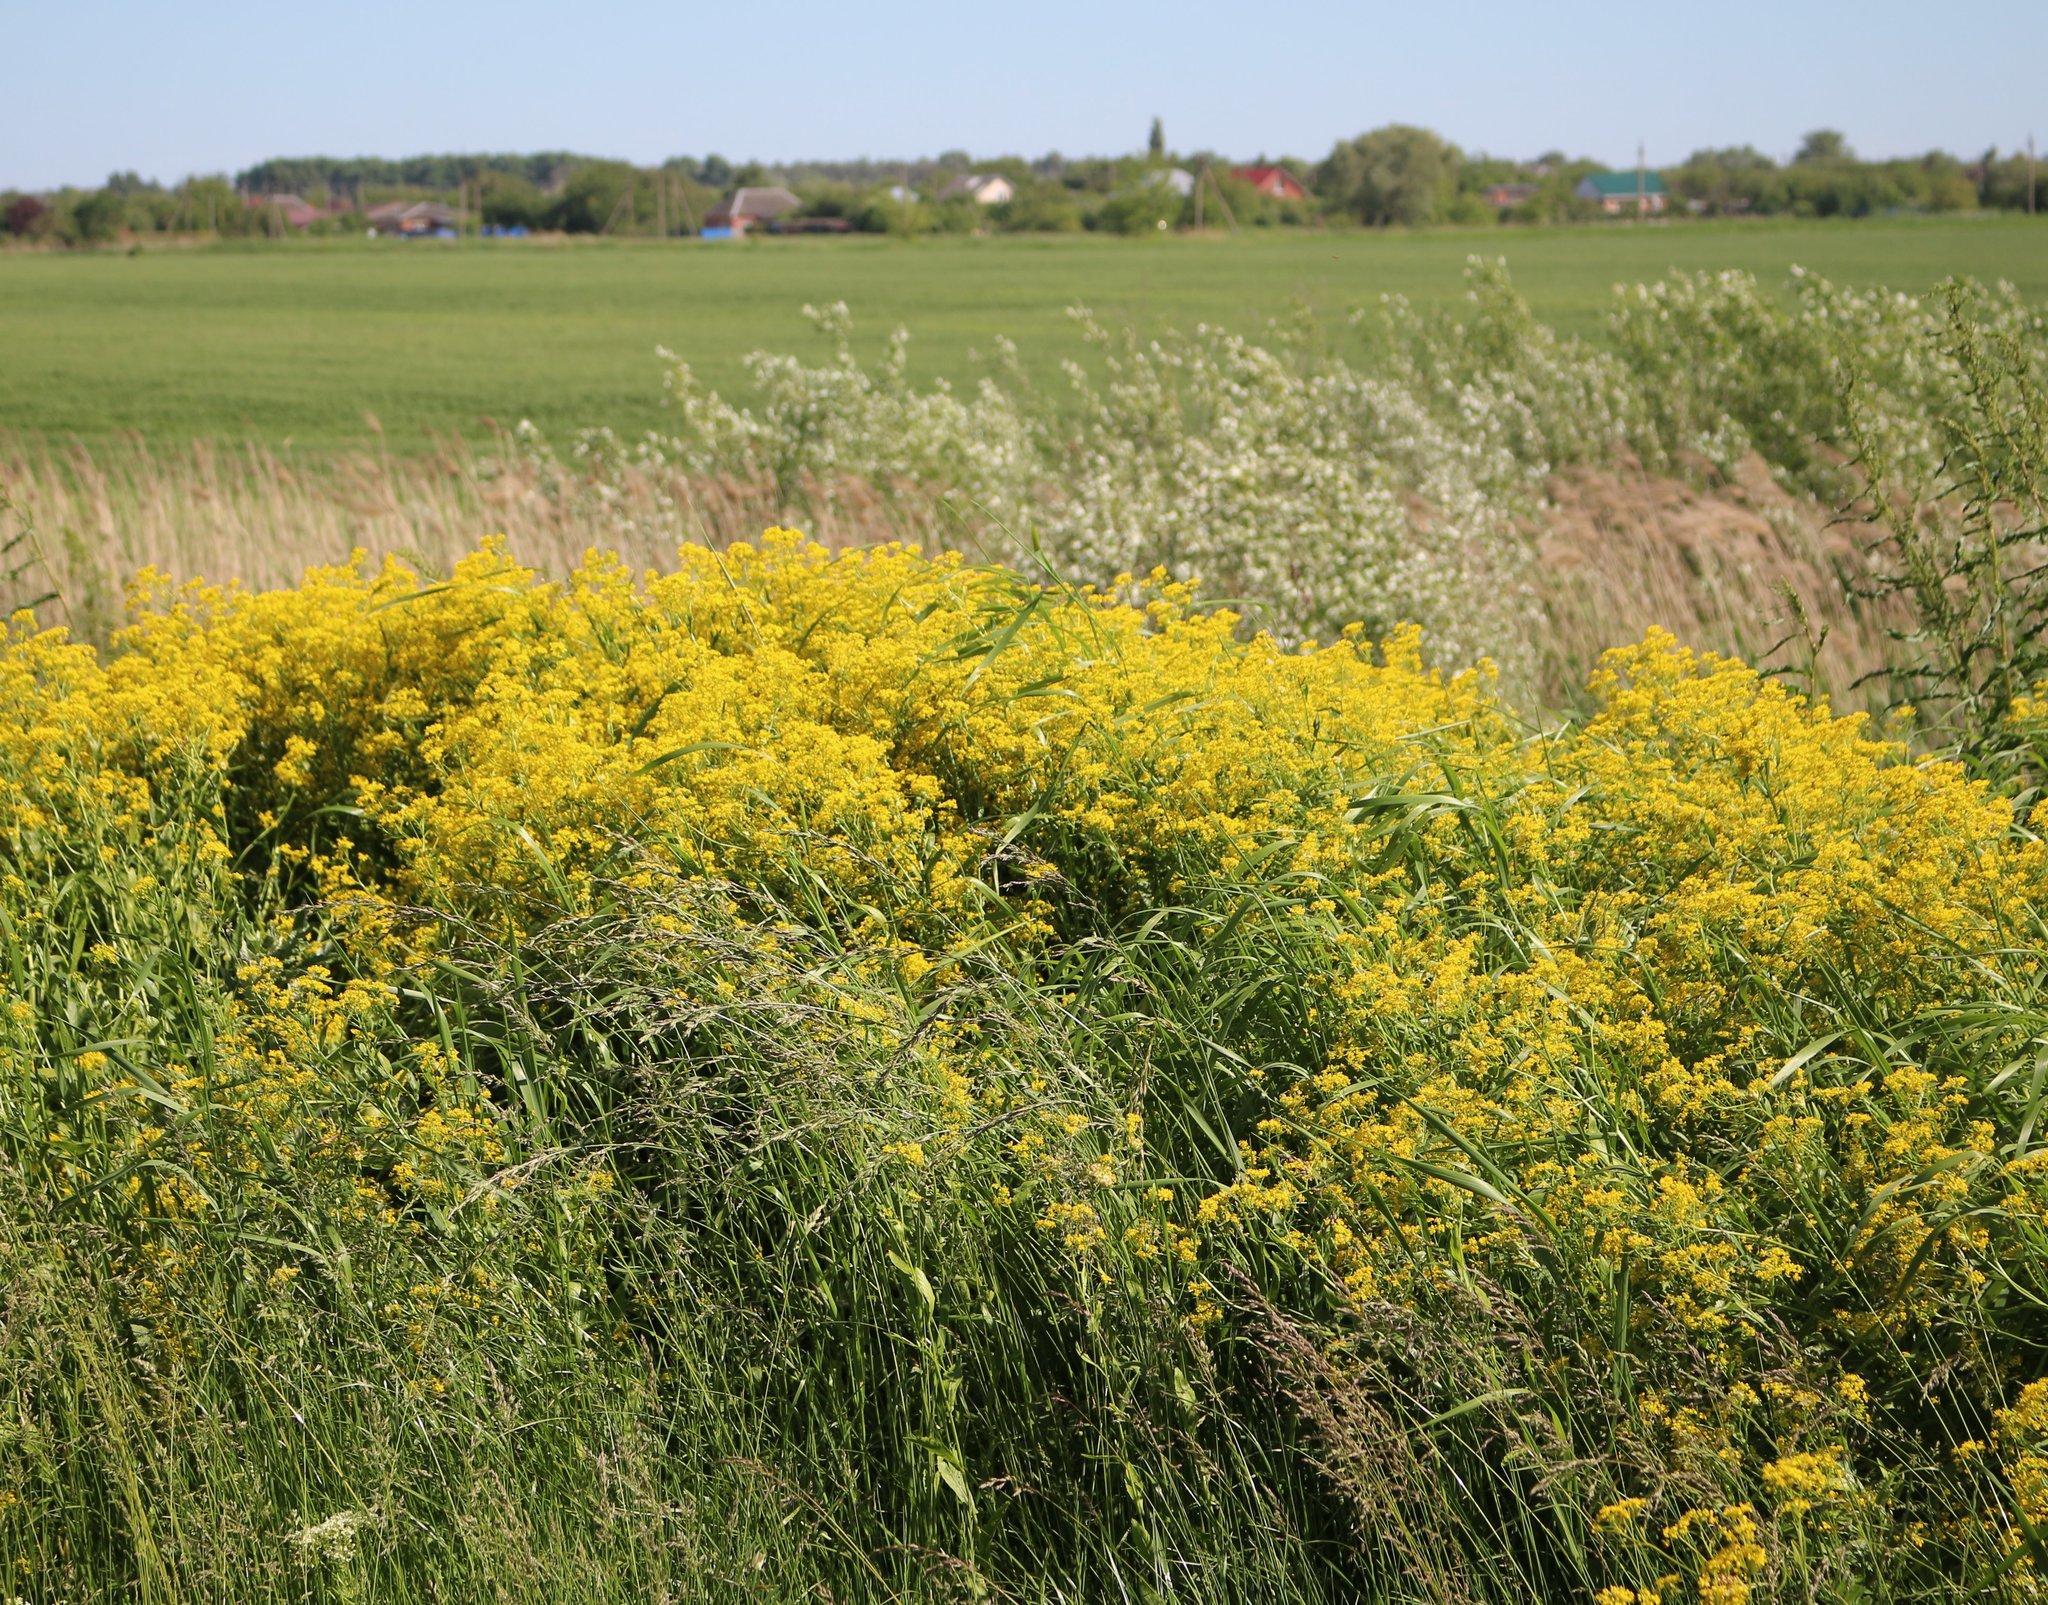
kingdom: Plantae
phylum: Tracheophyta
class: Magnoliopsida
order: Brassicales
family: Brassicaceae
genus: Rorippa
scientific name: Rorippa austriaca
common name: Austrian yellow-cress
